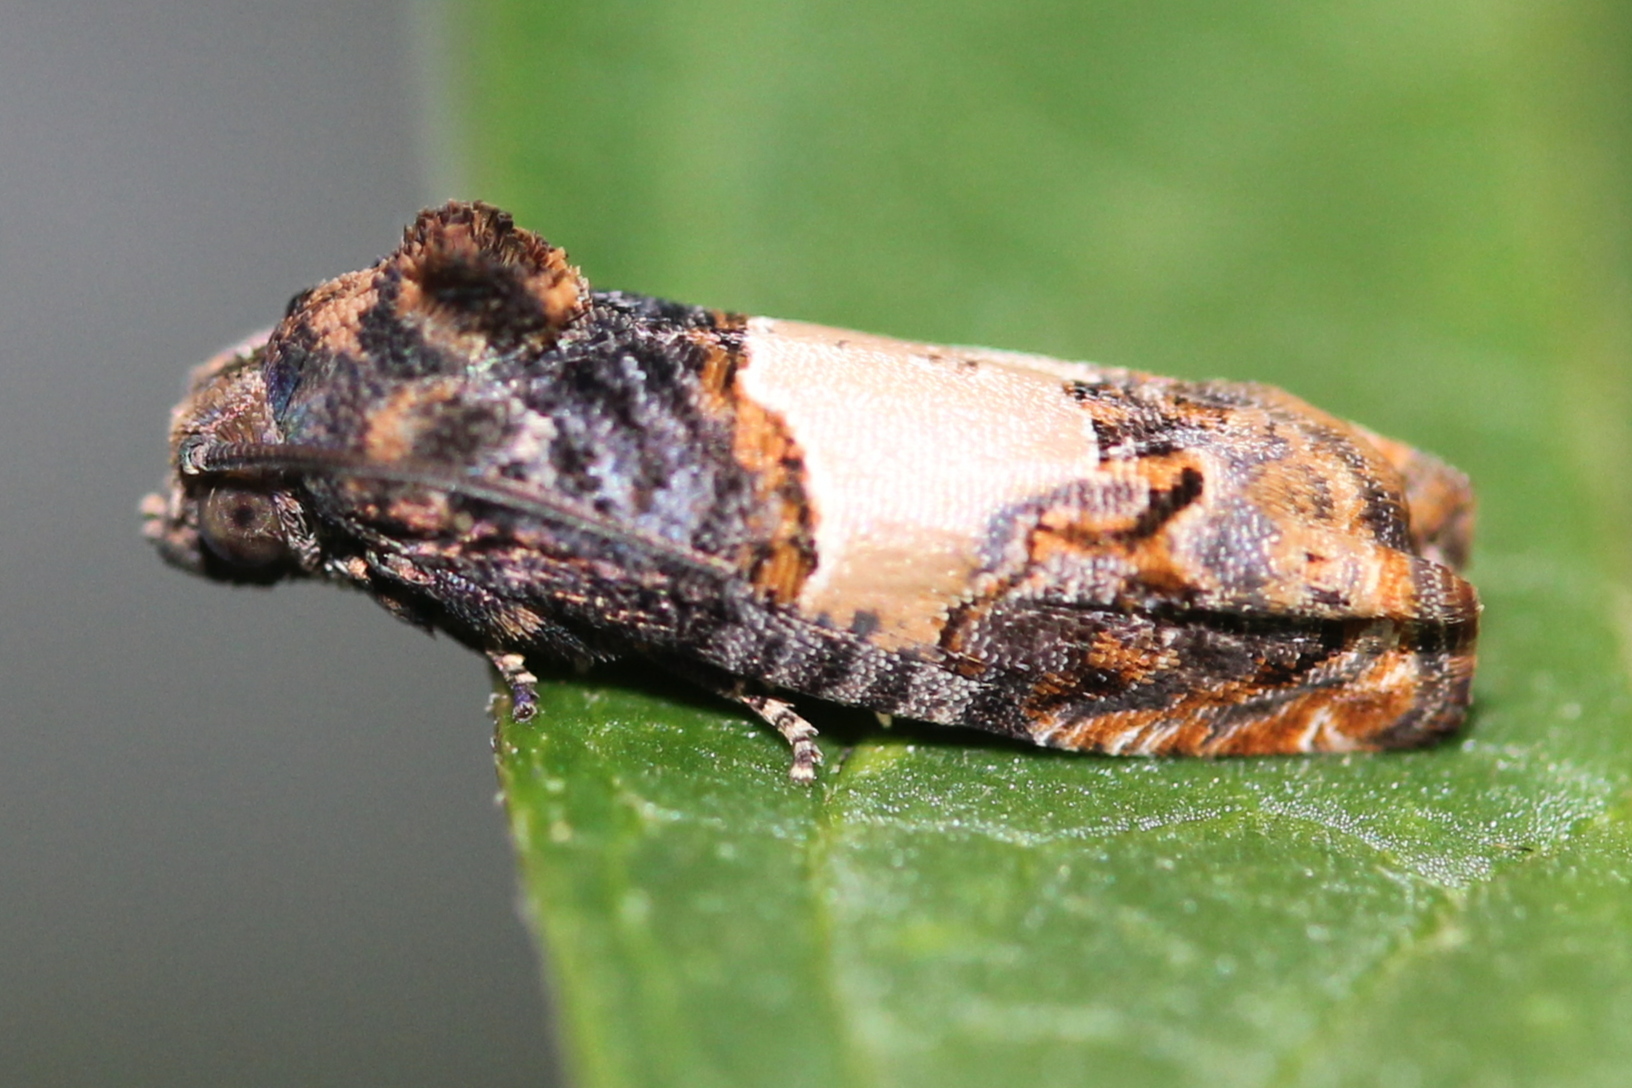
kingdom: Animalia
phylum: Arthropoda
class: Insecta
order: Lepidoptera
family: Tortricidae
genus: Epiblema
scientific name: Epiblema glenni
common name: Glenn's epiblema
